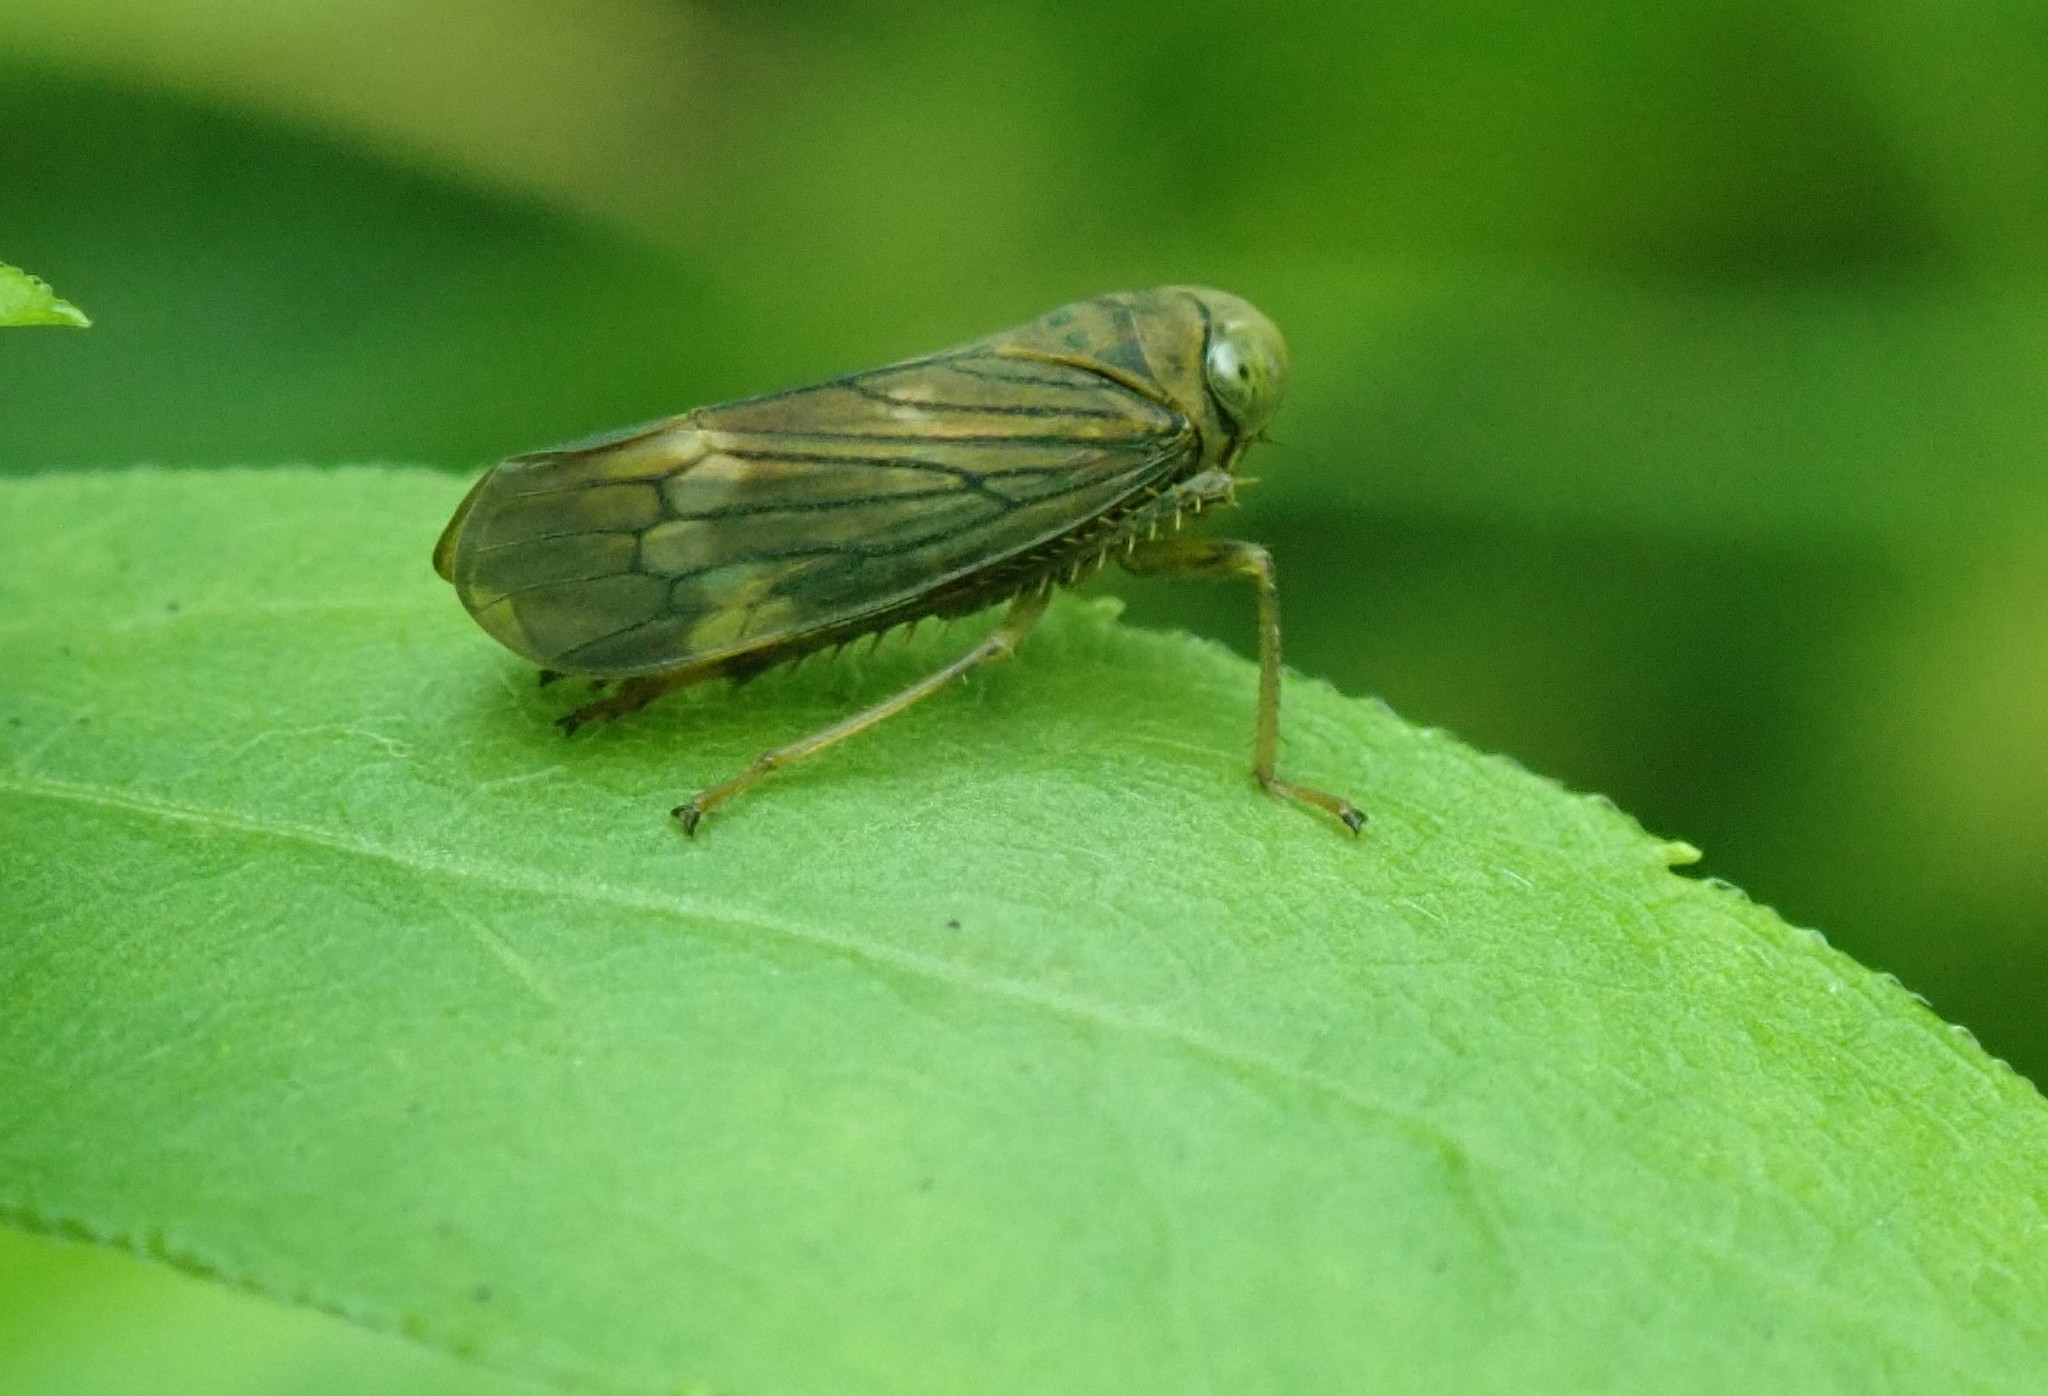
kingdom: Animalia
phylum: Arthropoda
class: Insecta
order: Hemiptera
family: Cicadellidae
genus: Jikradia
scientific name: Jikradia olitoria
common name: Coppery leafhopper
